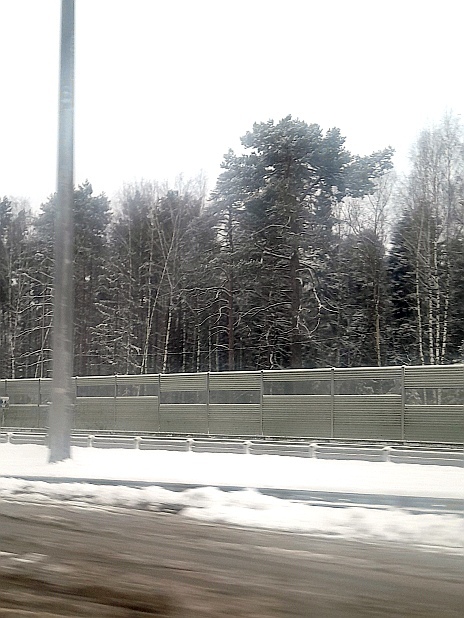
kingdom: Plantae
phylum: Tracheophyta
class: Pinopsida
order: Pinales
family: Pinaceae
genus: Pinus
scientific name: Pinus sylvestris
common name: Scots pine
